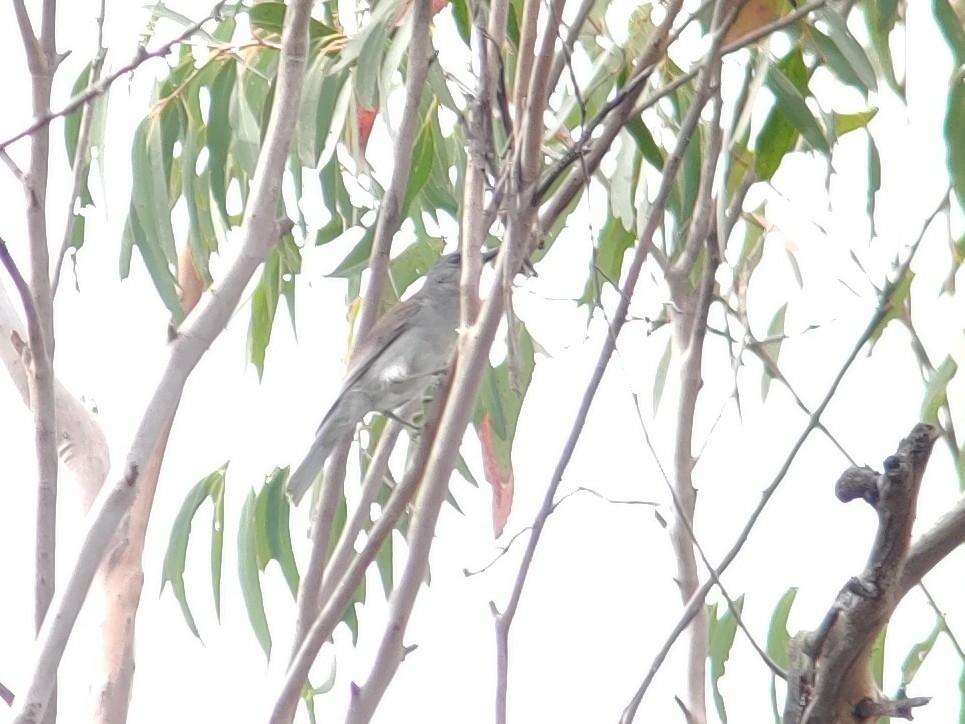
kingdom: Animalia
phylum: Chordata
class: Aves
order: Passeriformes
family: Pachycephalidae
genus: Colluricincla
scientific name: Colluricincla harmonica
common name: Grey shrikethrush
